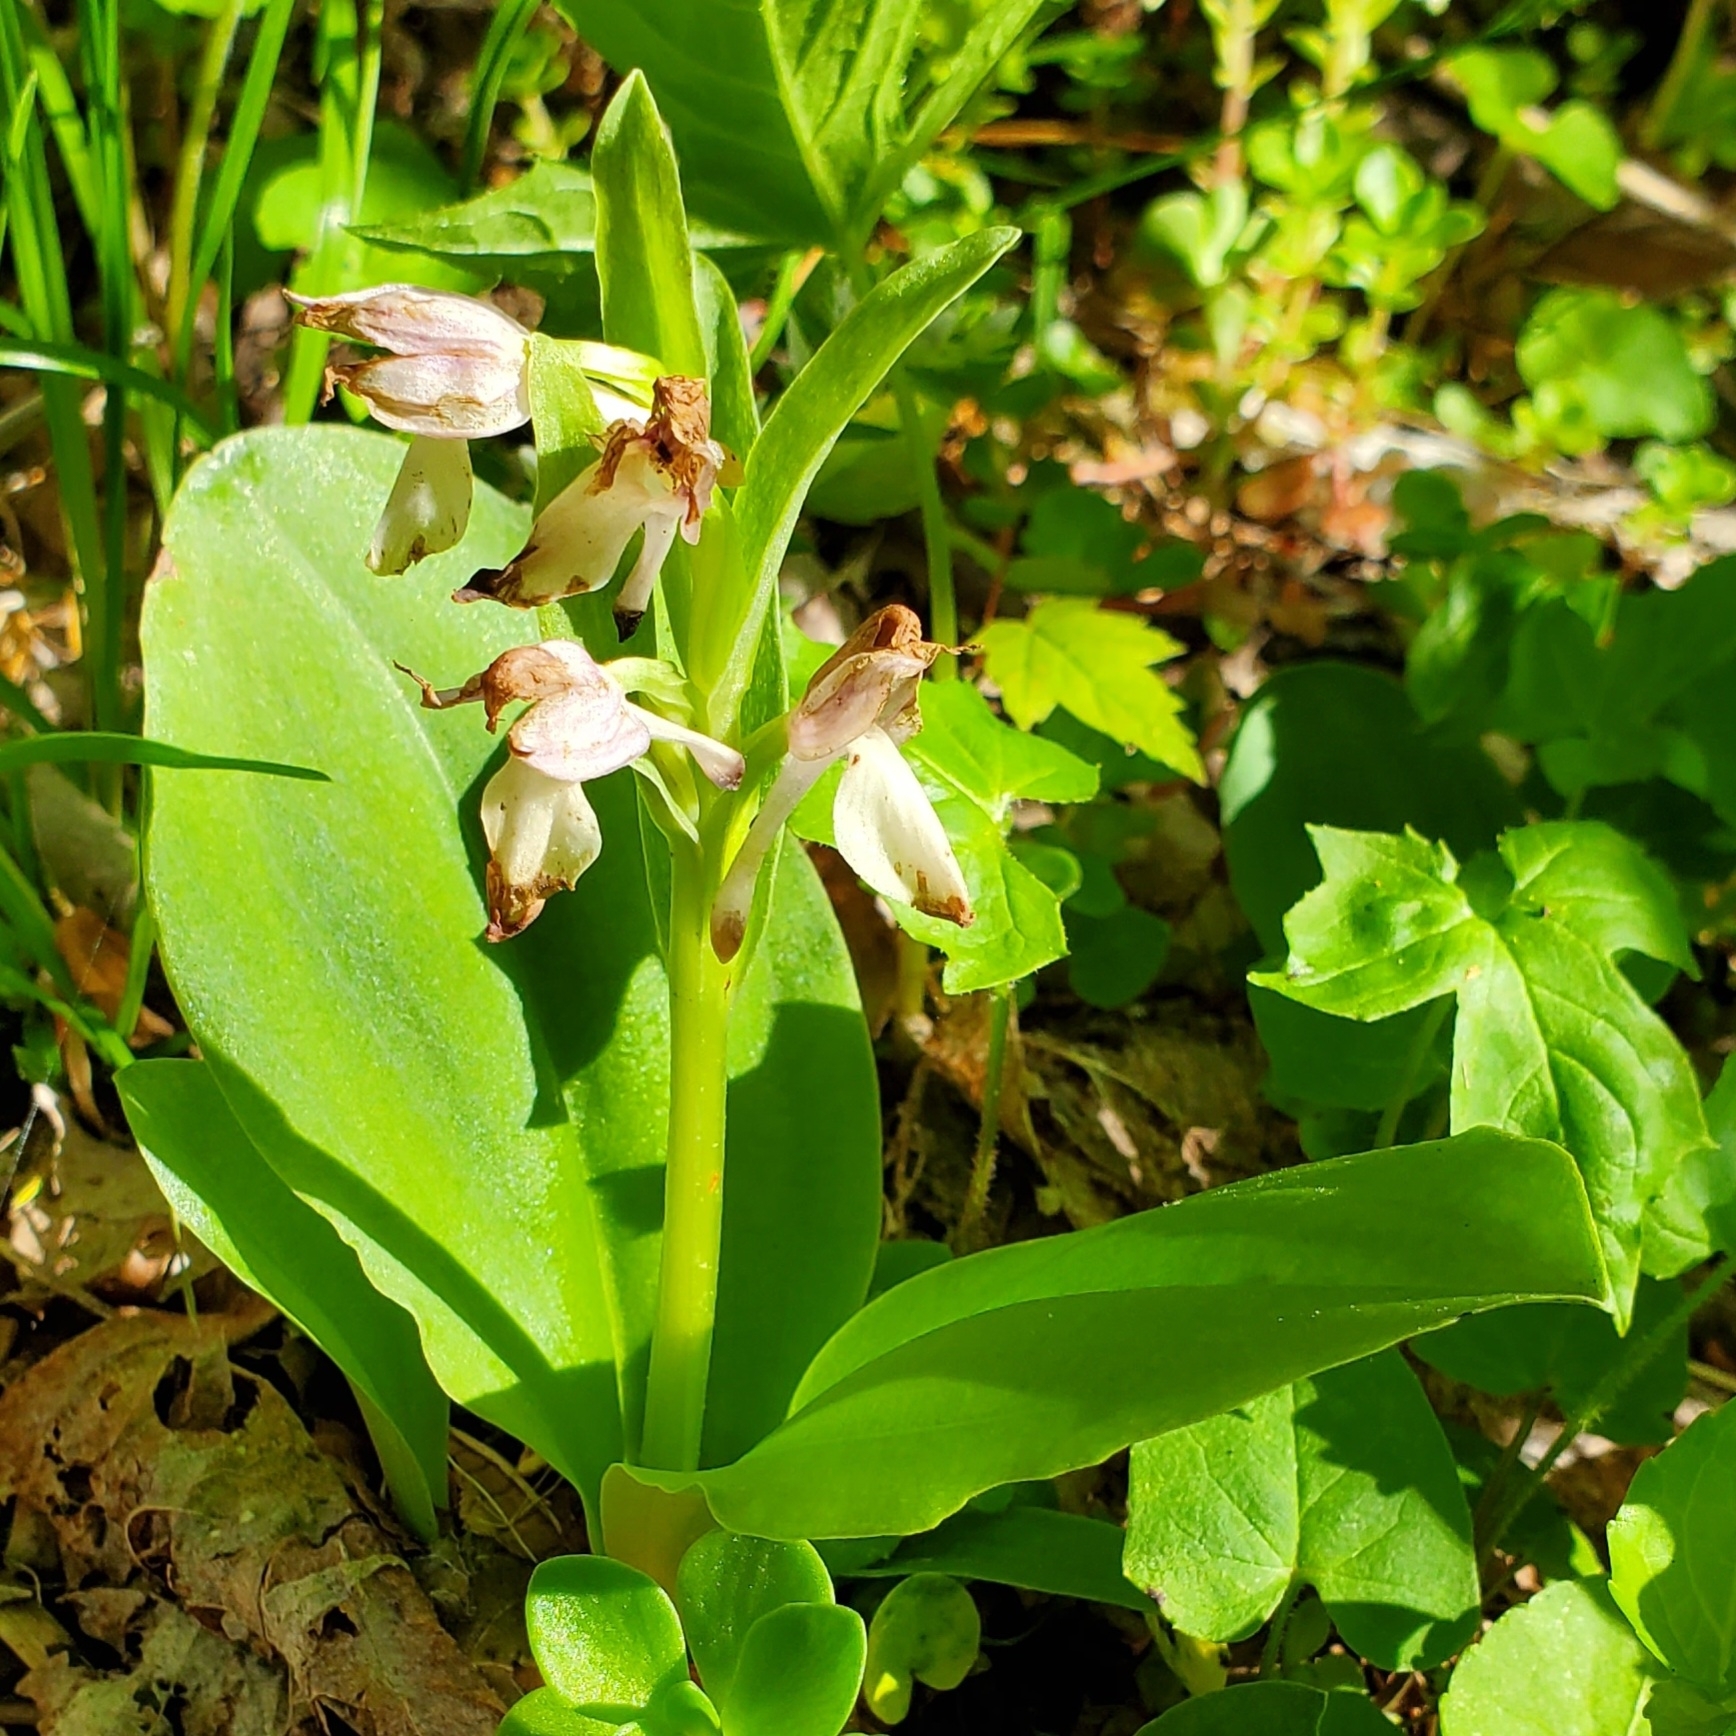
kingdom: Plantae
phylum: Tracheophyta
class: Liliopsida
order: Asparagales
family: Orchidaceae
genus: Galearis
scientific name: Galearis spectabilis
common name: Purple-hooded orchis
